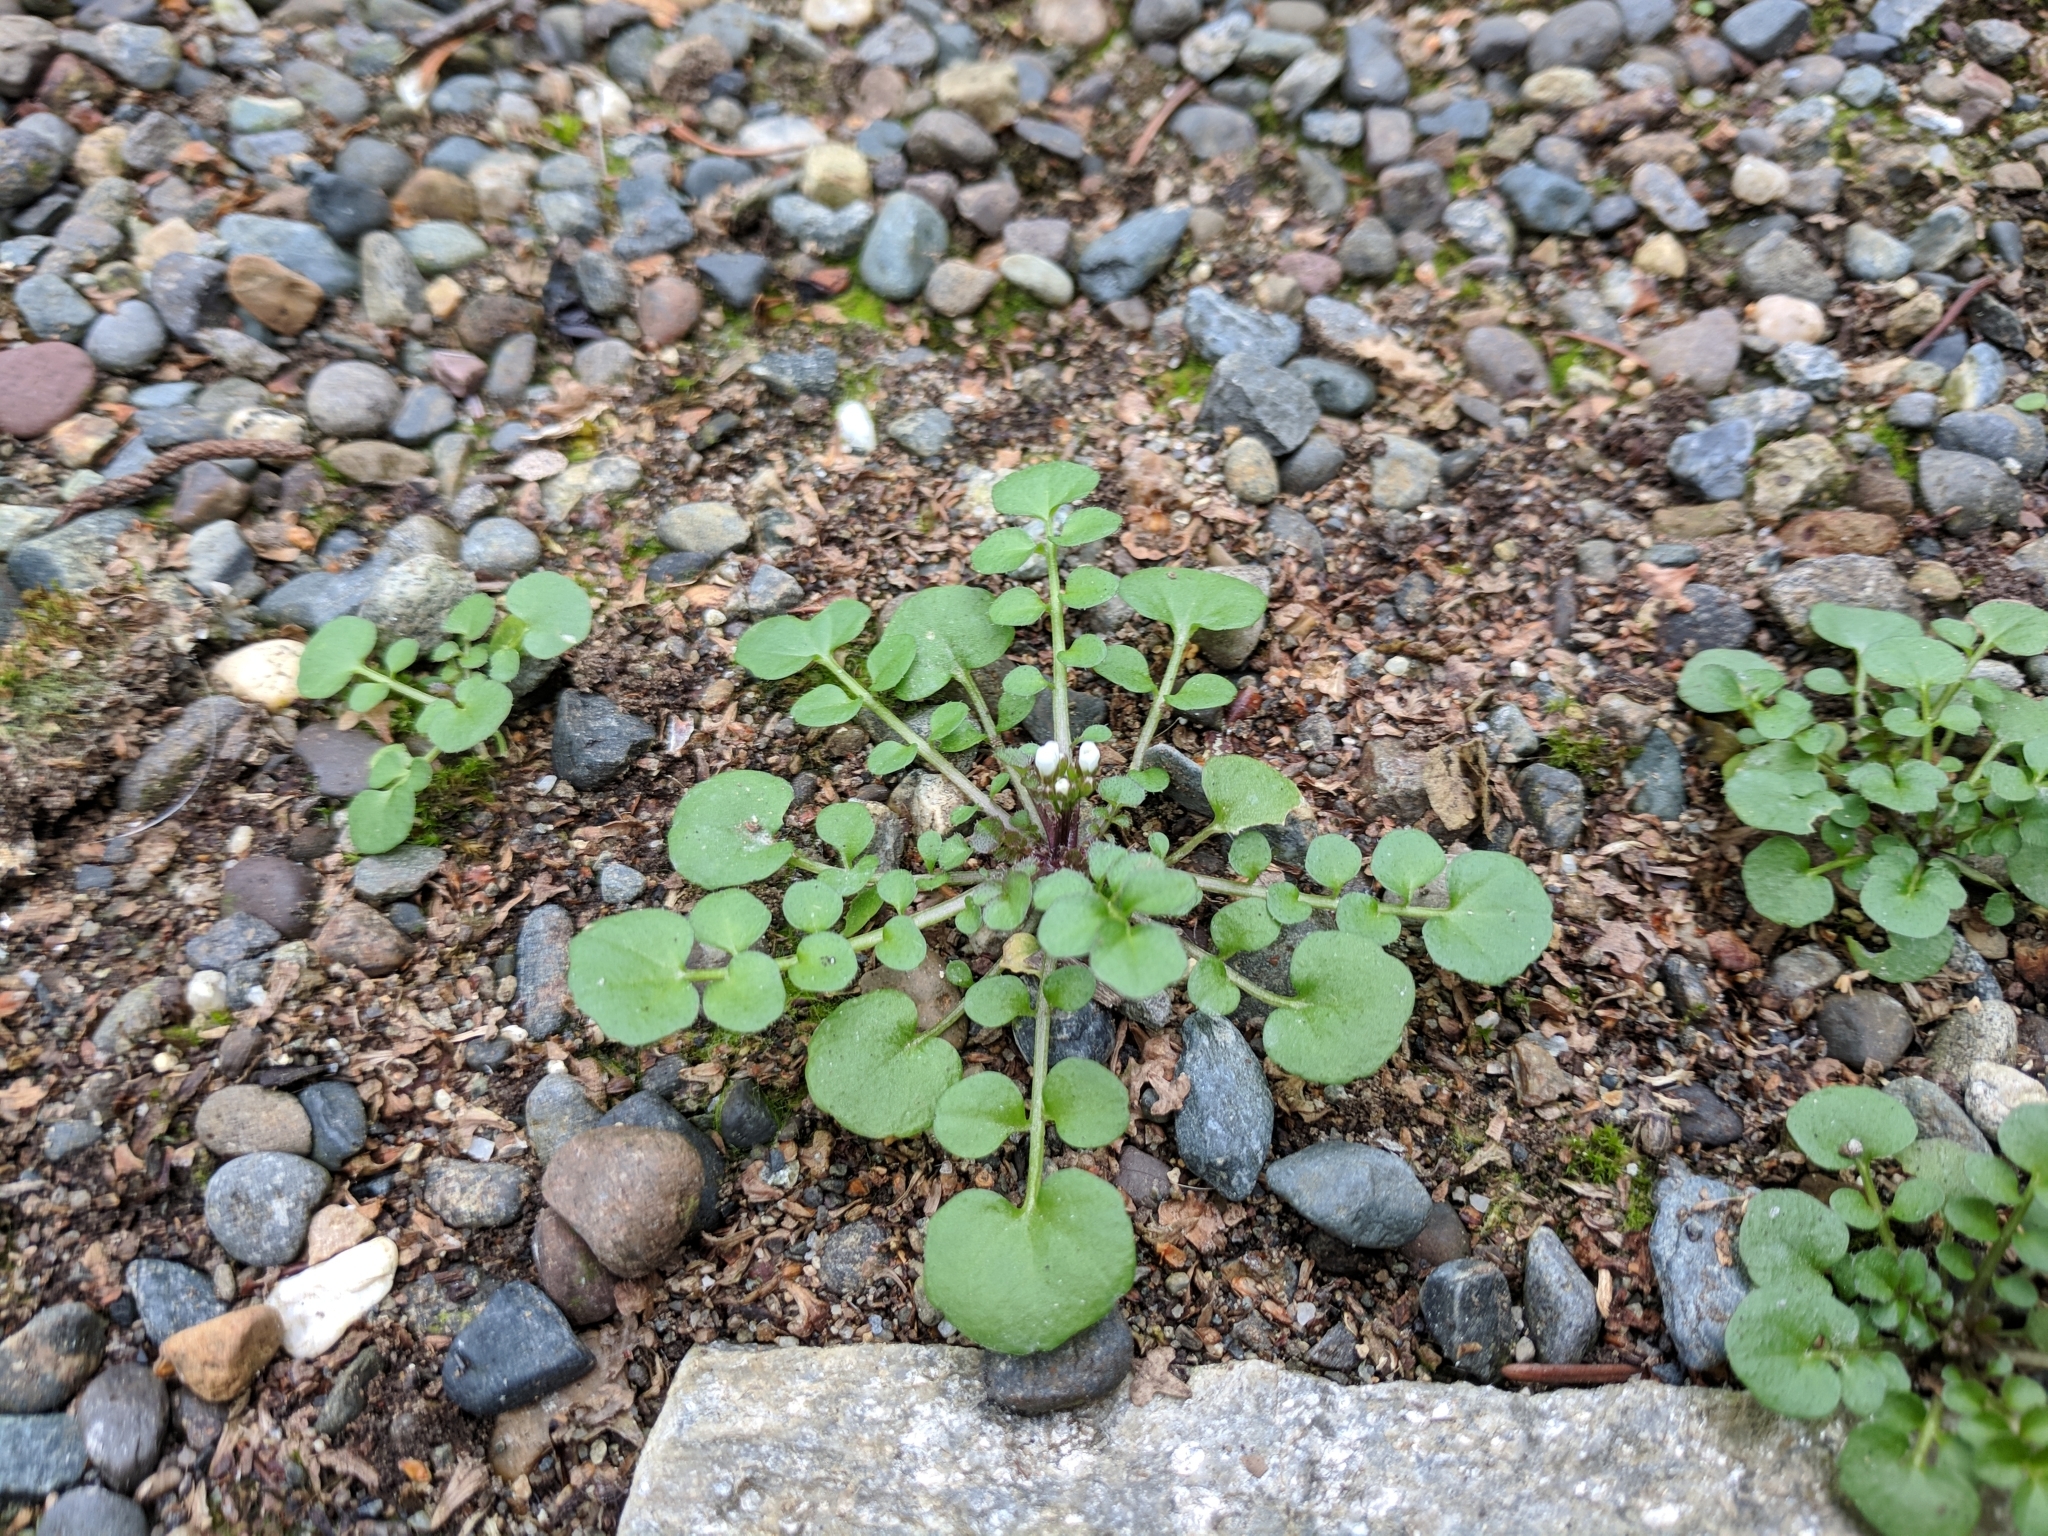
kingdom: Plantae
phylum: Tracheophyta
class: Magnoliopsida
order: Brassicales
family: Brassicaceae
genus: Cardamine
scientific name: Cardamine hirsuta
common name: Hairy bittercress
